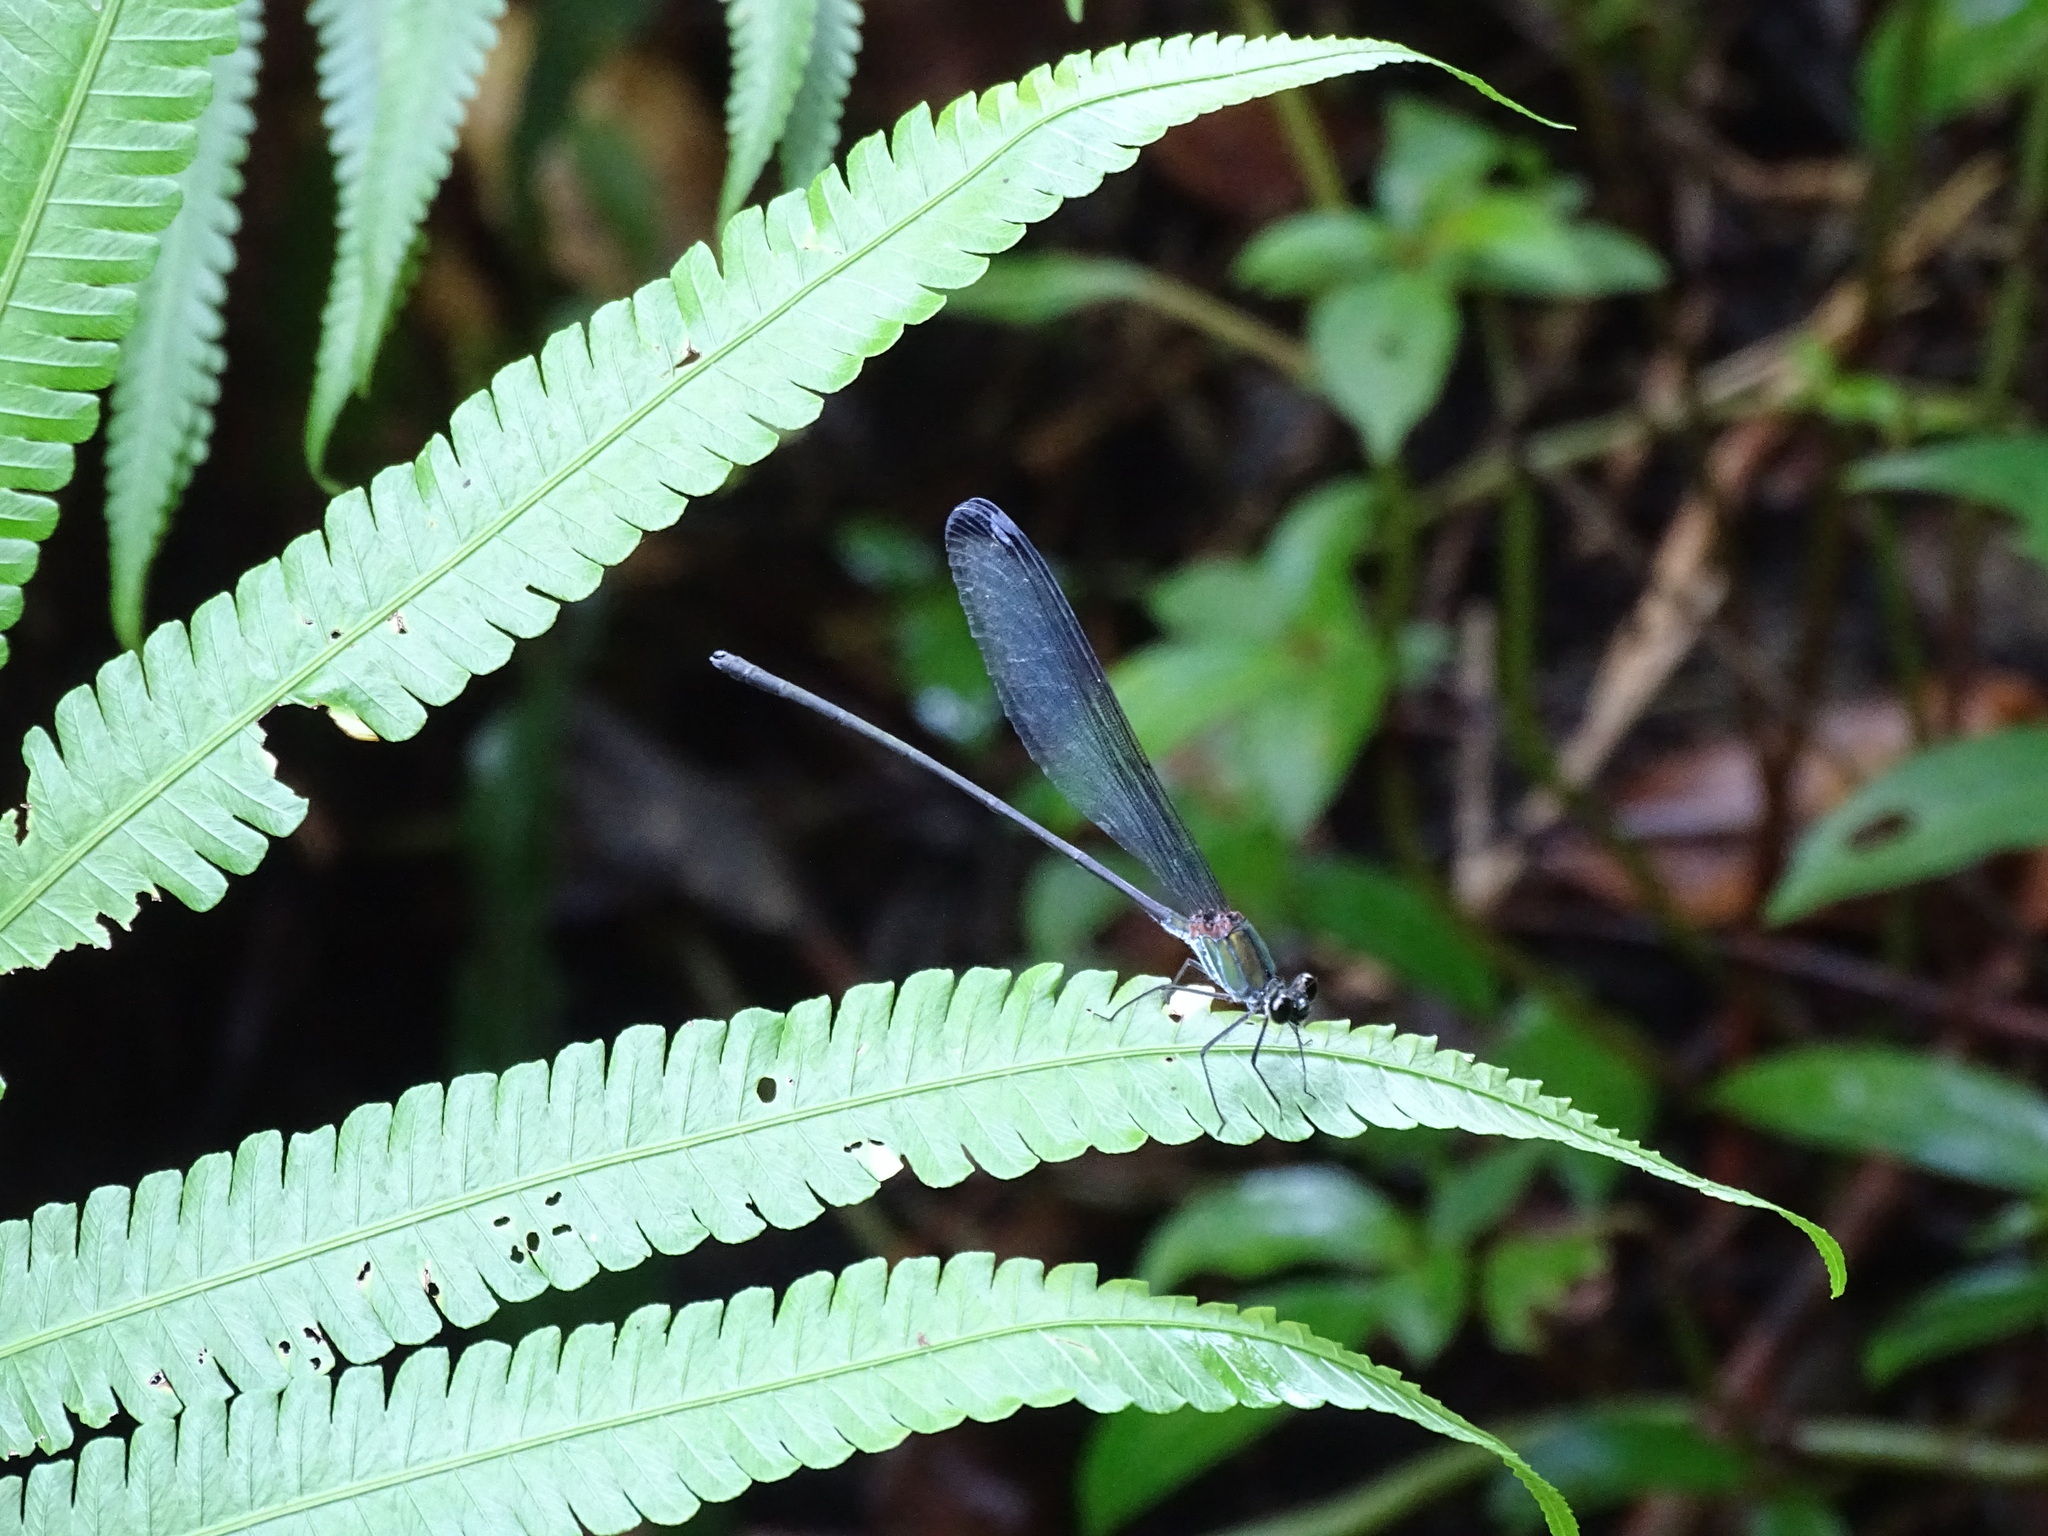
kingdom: Animalia
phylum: Arthropoda
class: Insecta
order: Odonata
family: Calopterygidae
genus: Psolodesmus
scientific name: Psolodesmus mandarinus
